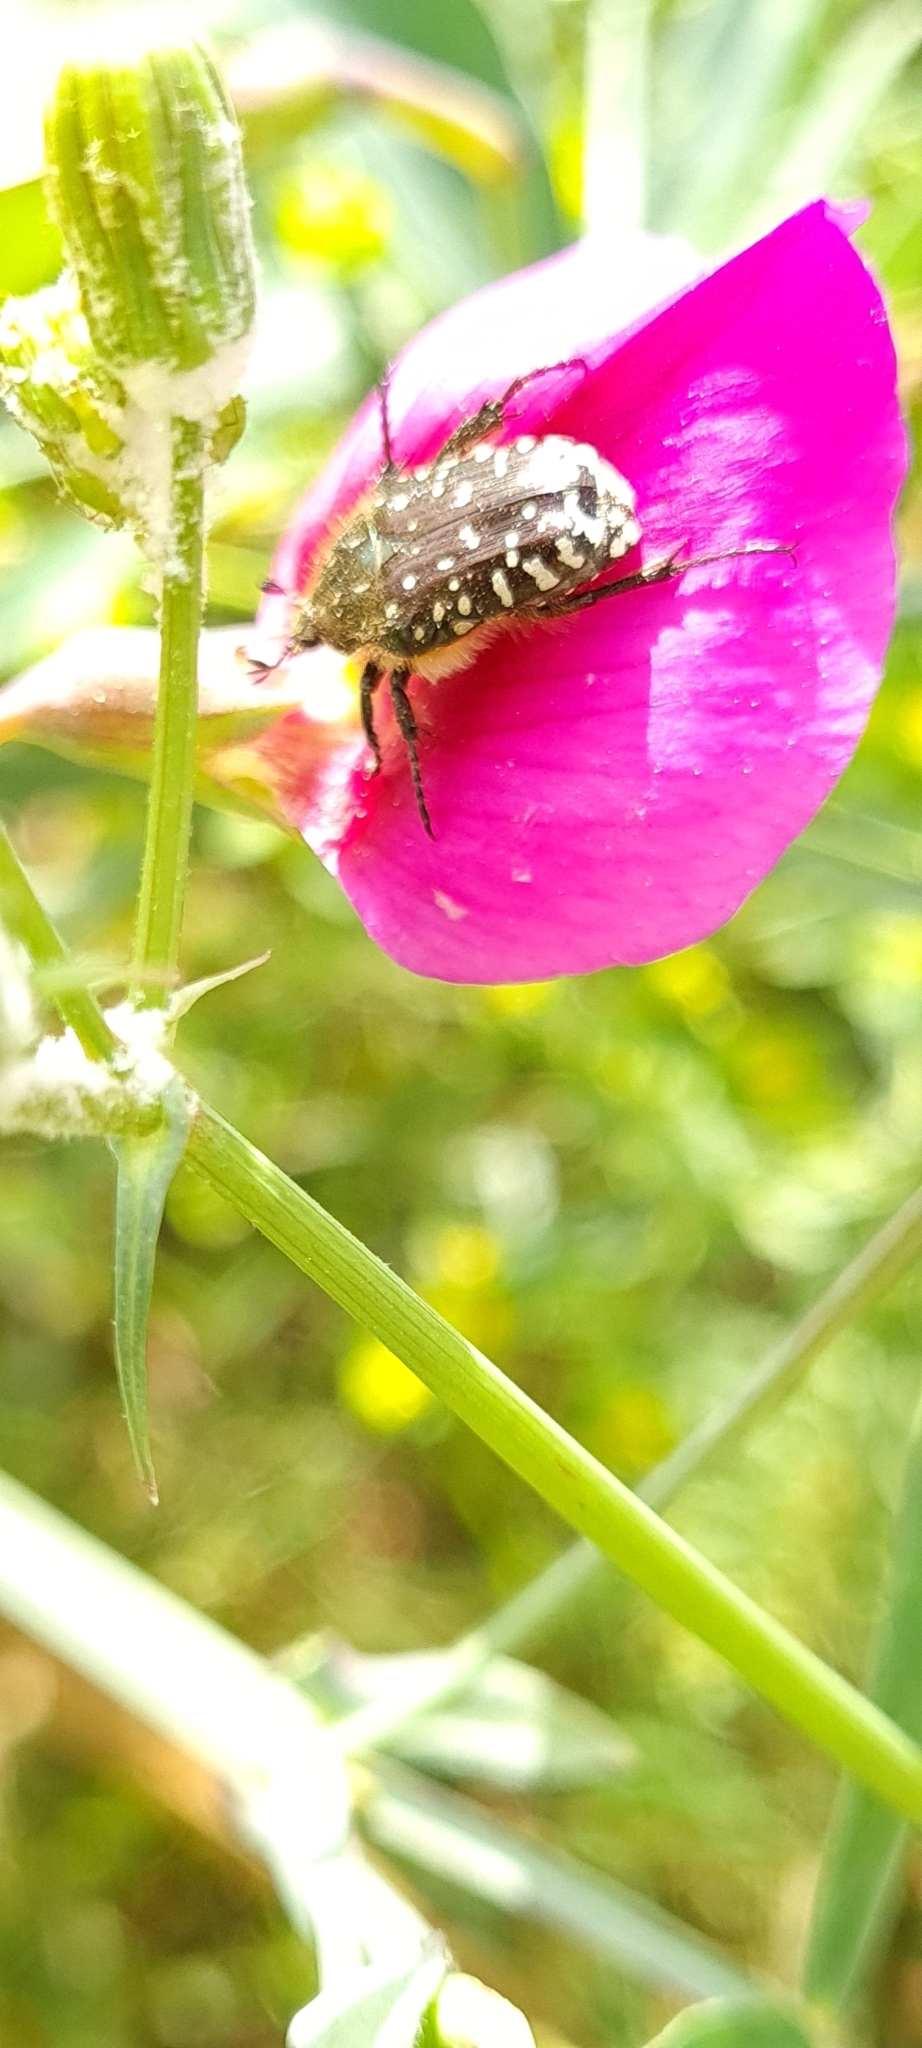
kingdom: Animalia
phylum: Arthropoda
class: Insecta
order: Coleoptera
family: Scarabaeidae
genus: Oxythyrea
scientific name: Oxythyrea funesta
